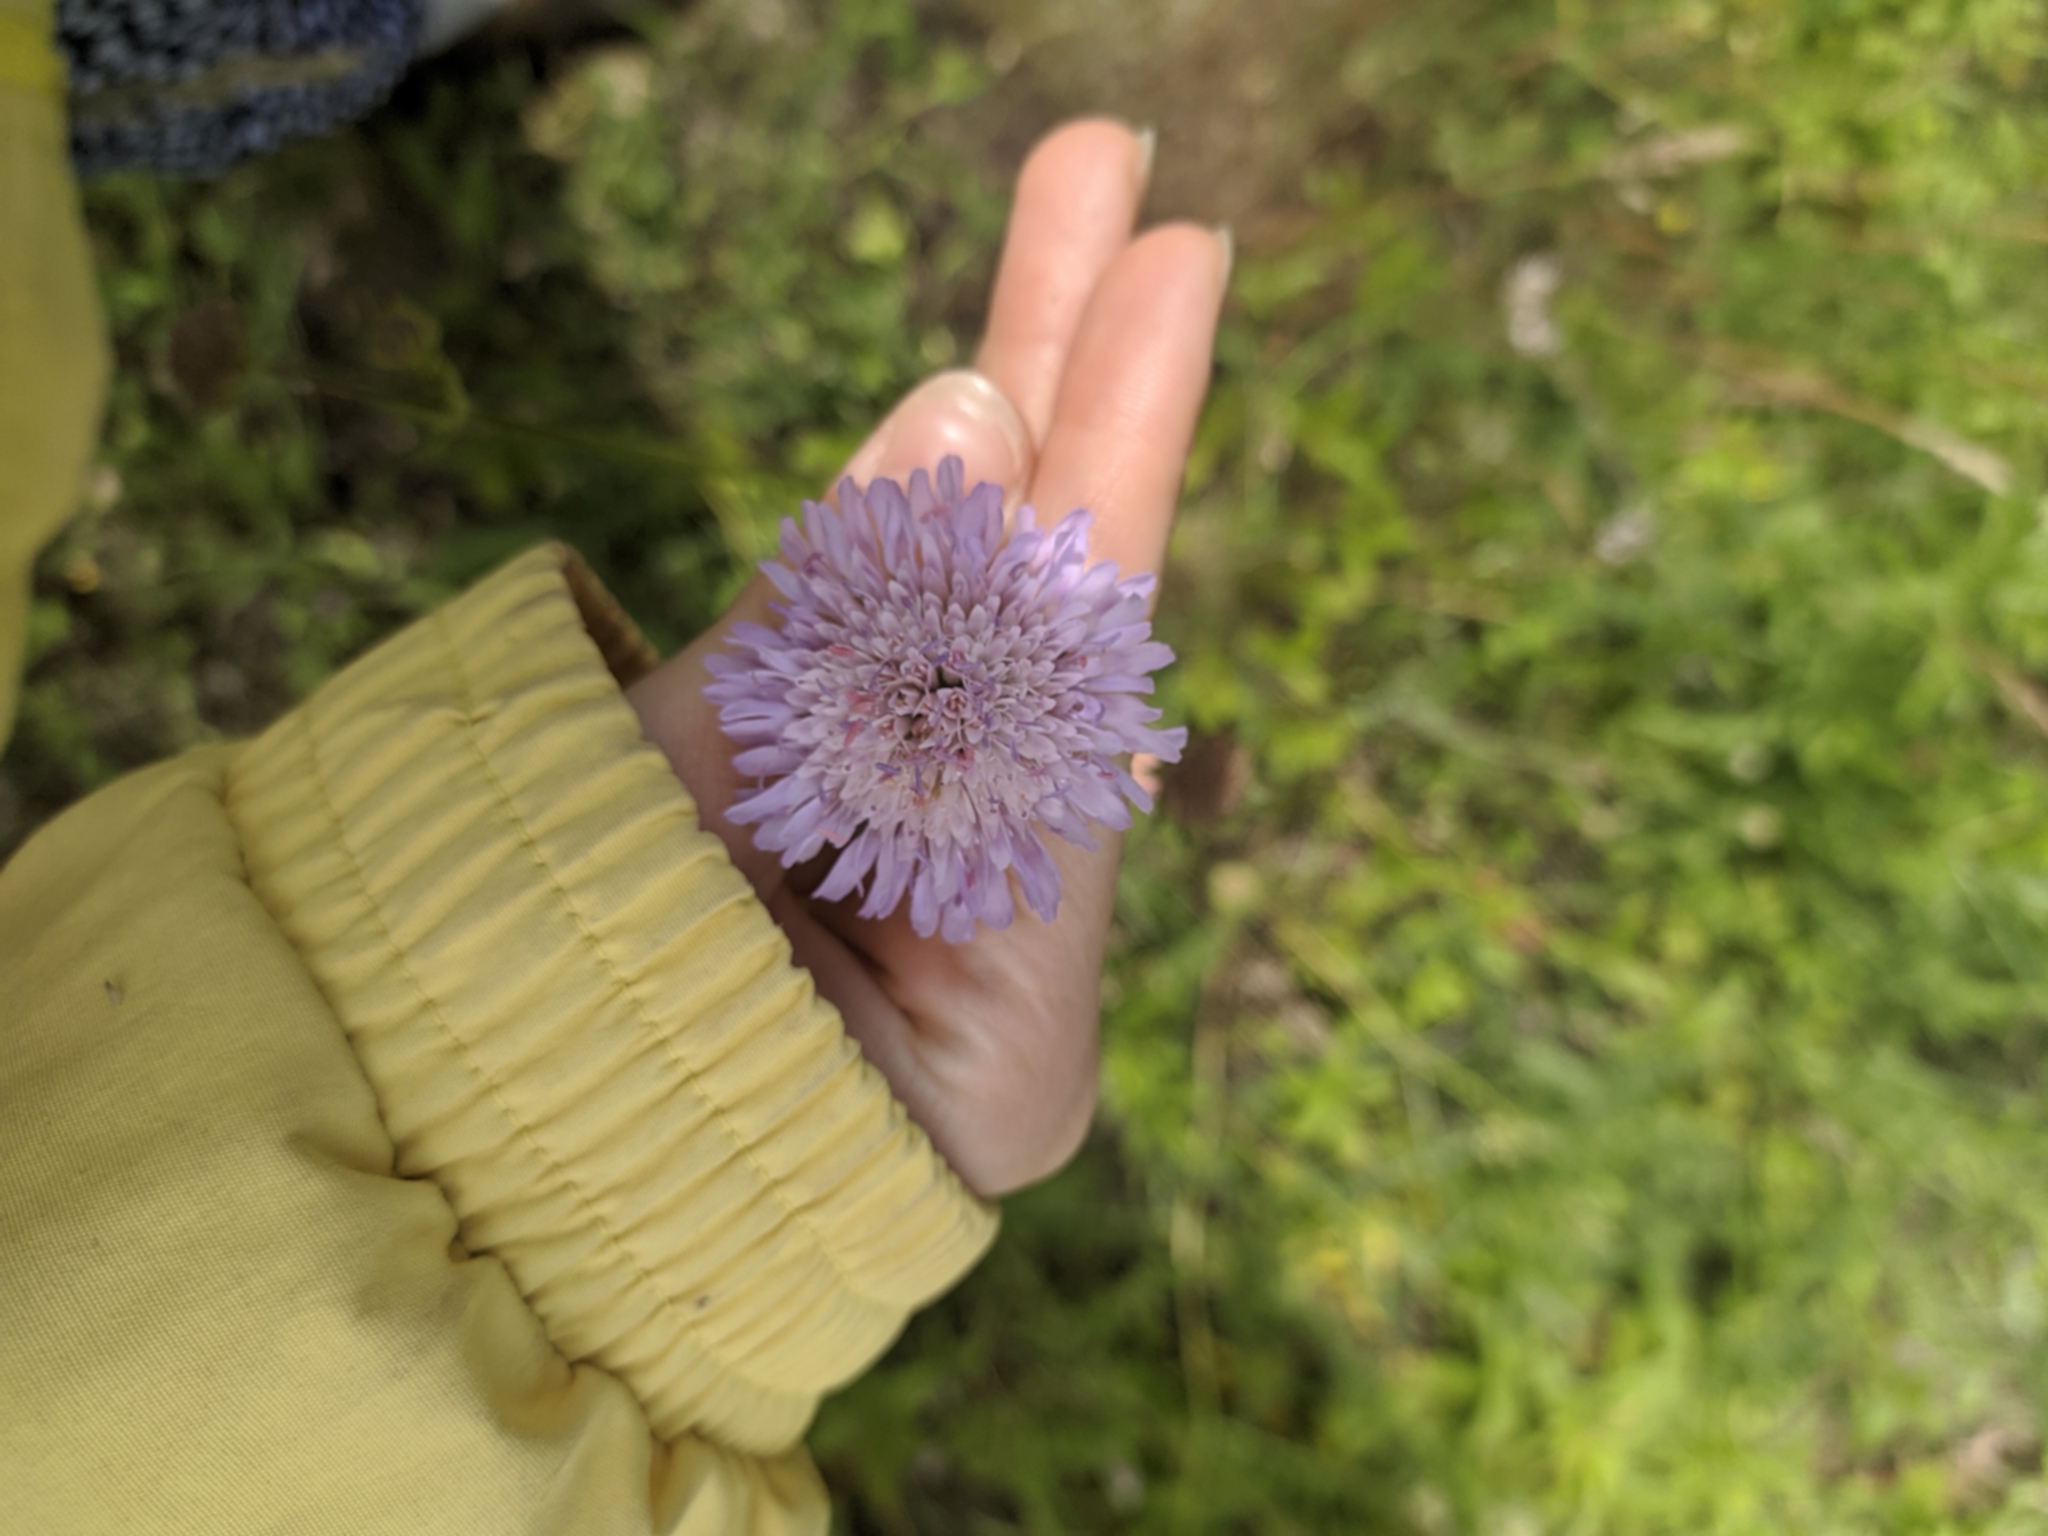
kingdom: Plantae
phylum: Tracheophyta
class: Magnoliopsida
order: Dipsacales
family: Caprifoliaceae
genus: Knautia
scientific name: Knautia arvensis
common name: Field scabiosa
